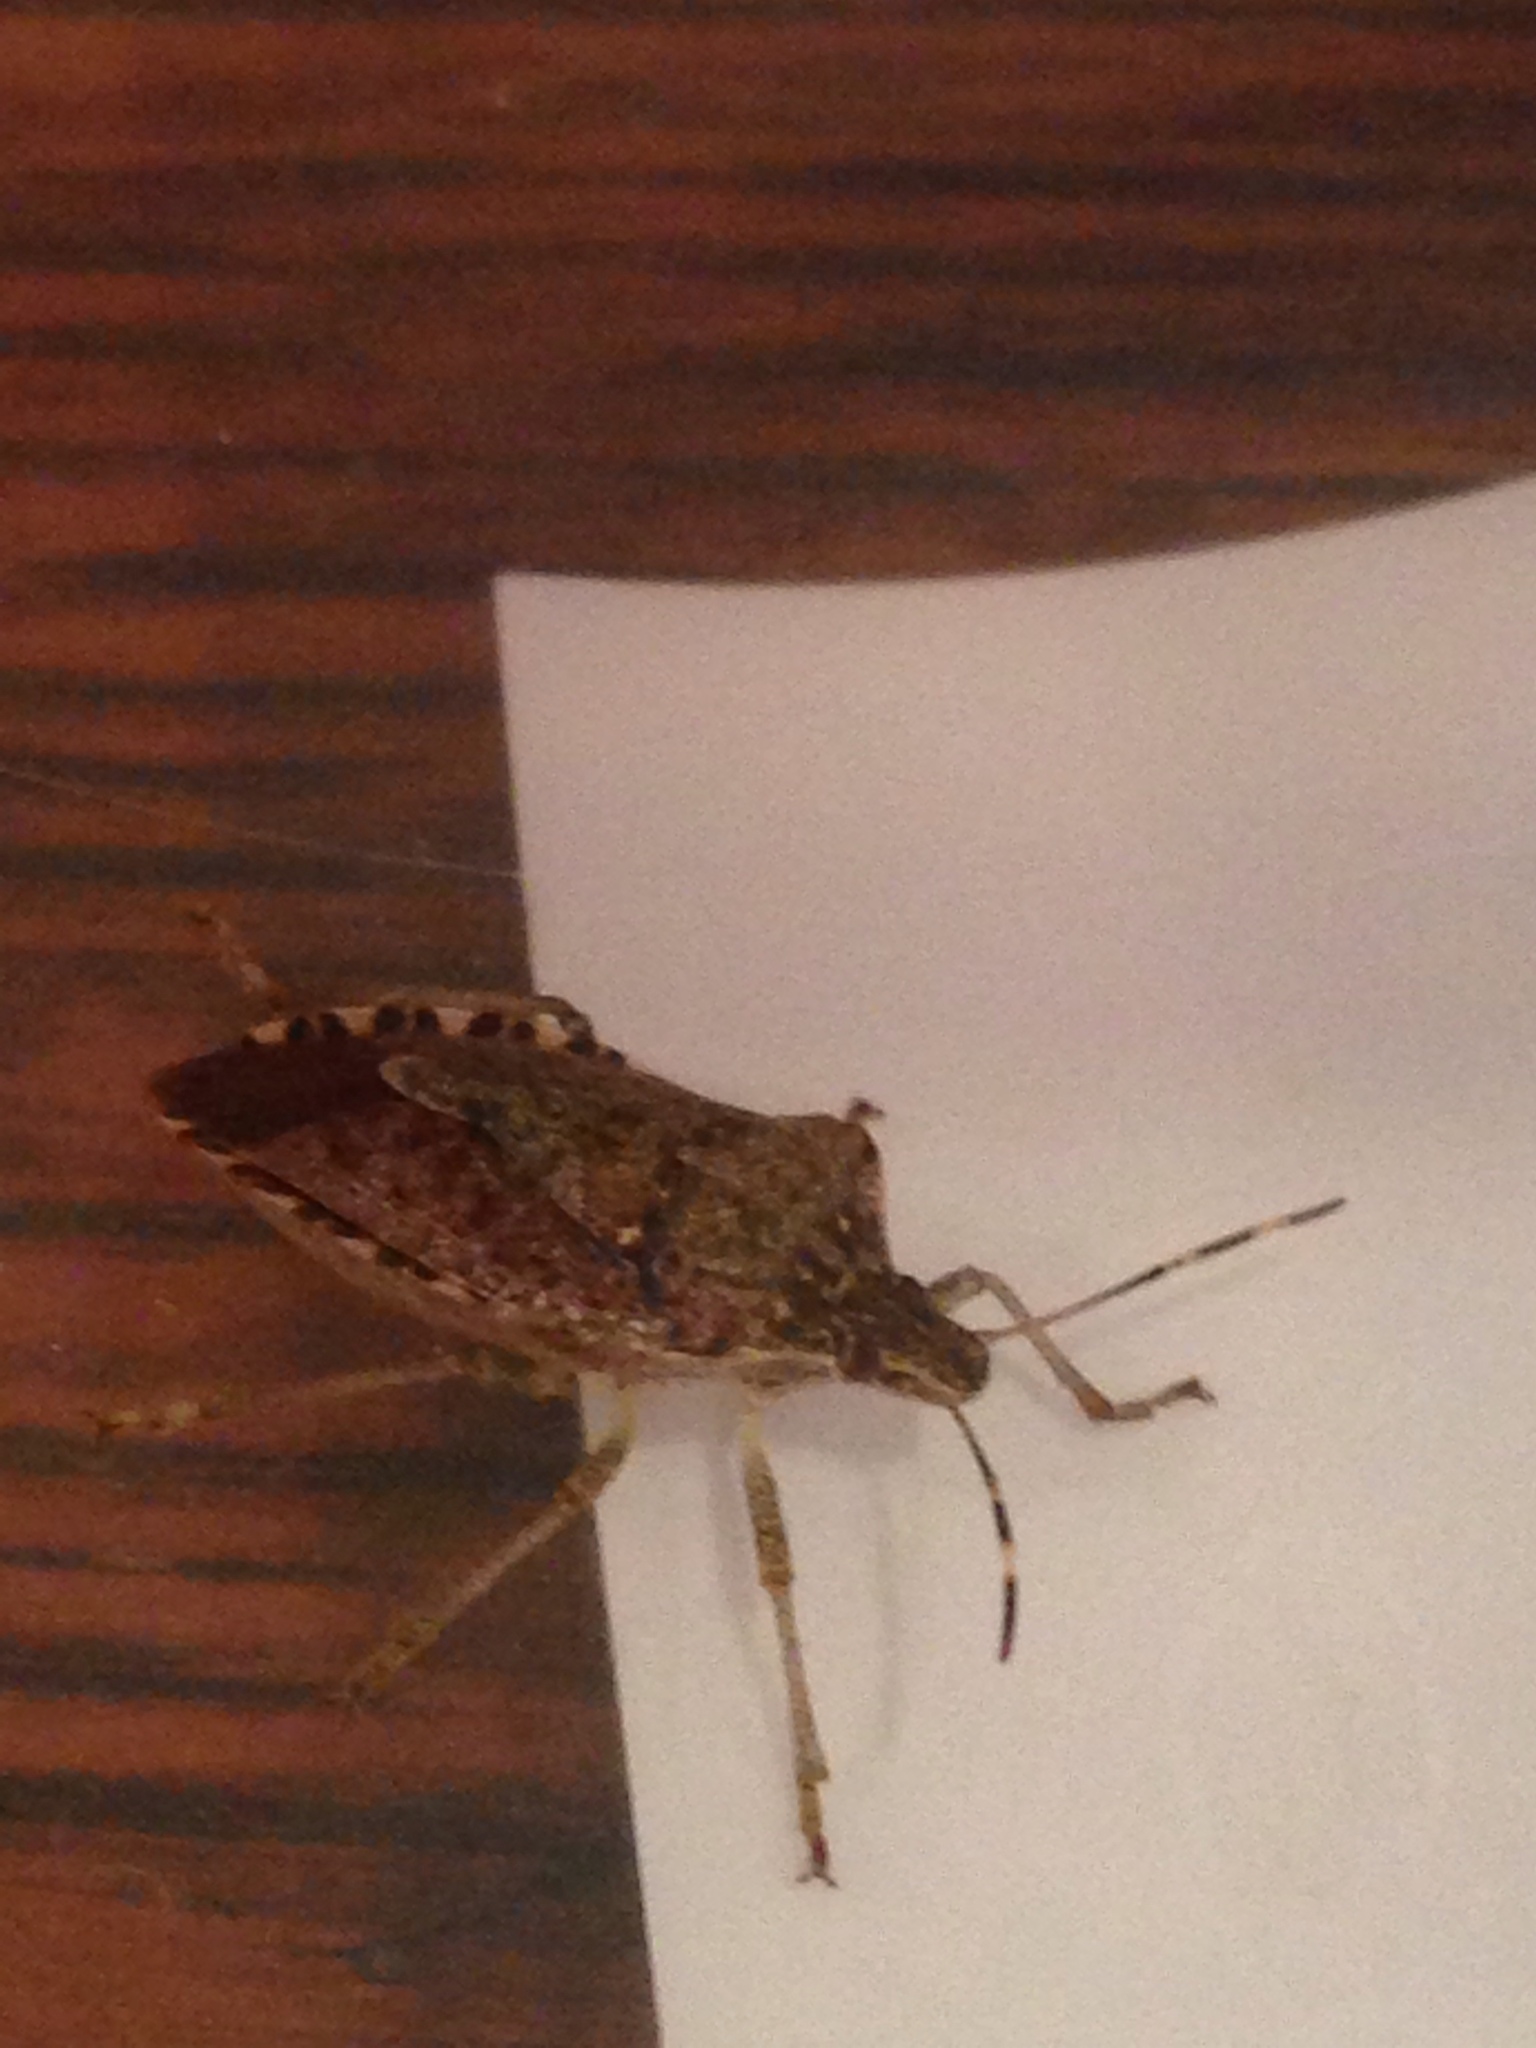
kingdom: Animalia
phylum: Arthropoda
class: Insecta
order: Hemiptera
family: Pentatomidae
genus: Halyomorpha
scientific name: Halyomorpha halys
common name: Brown marmorated stink bug
